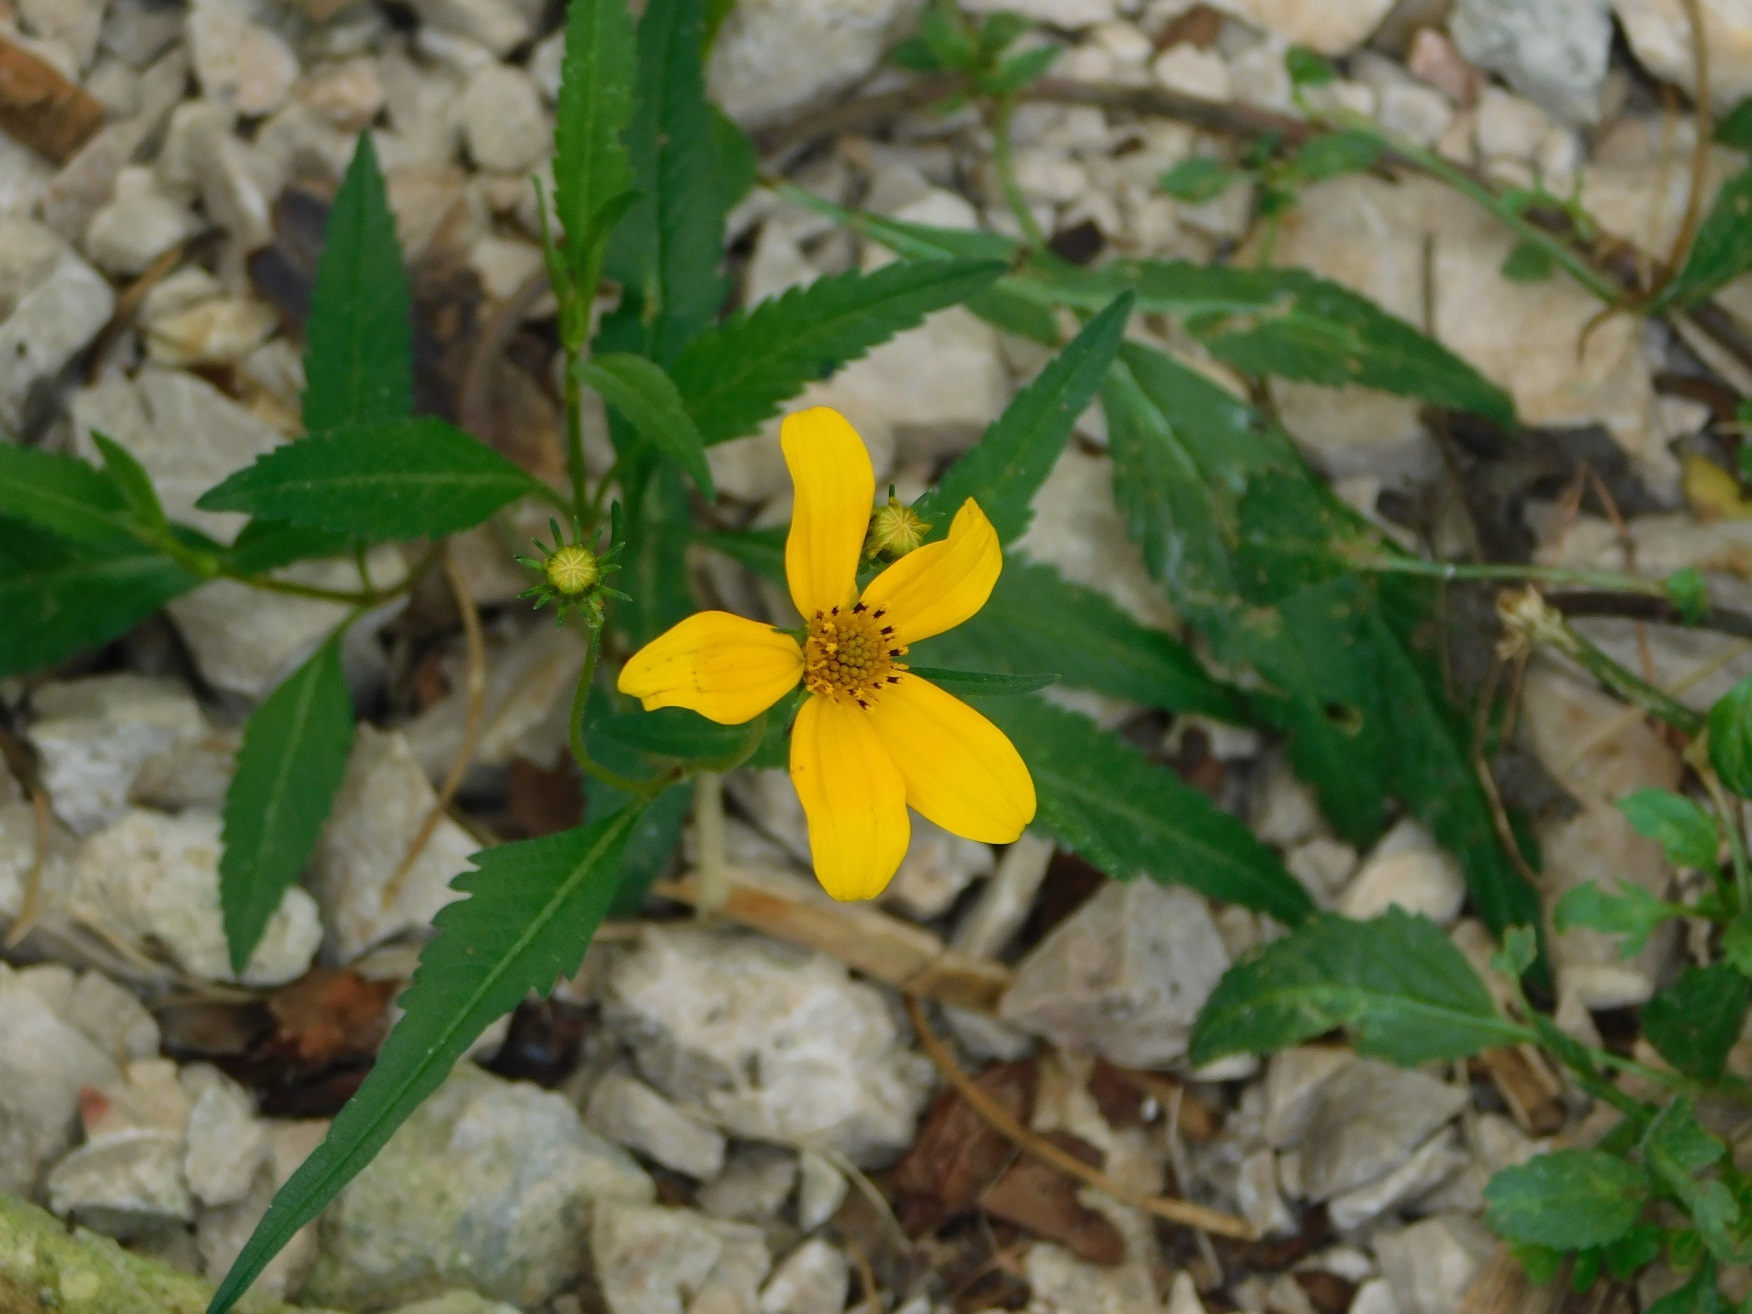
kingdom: Plantae
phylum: Tracheophyta
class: Magnoliopsida
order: Asterales
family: Asteraceae
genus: Bidens
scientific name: Bidens aurea
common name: Arizona beggar-ticks
